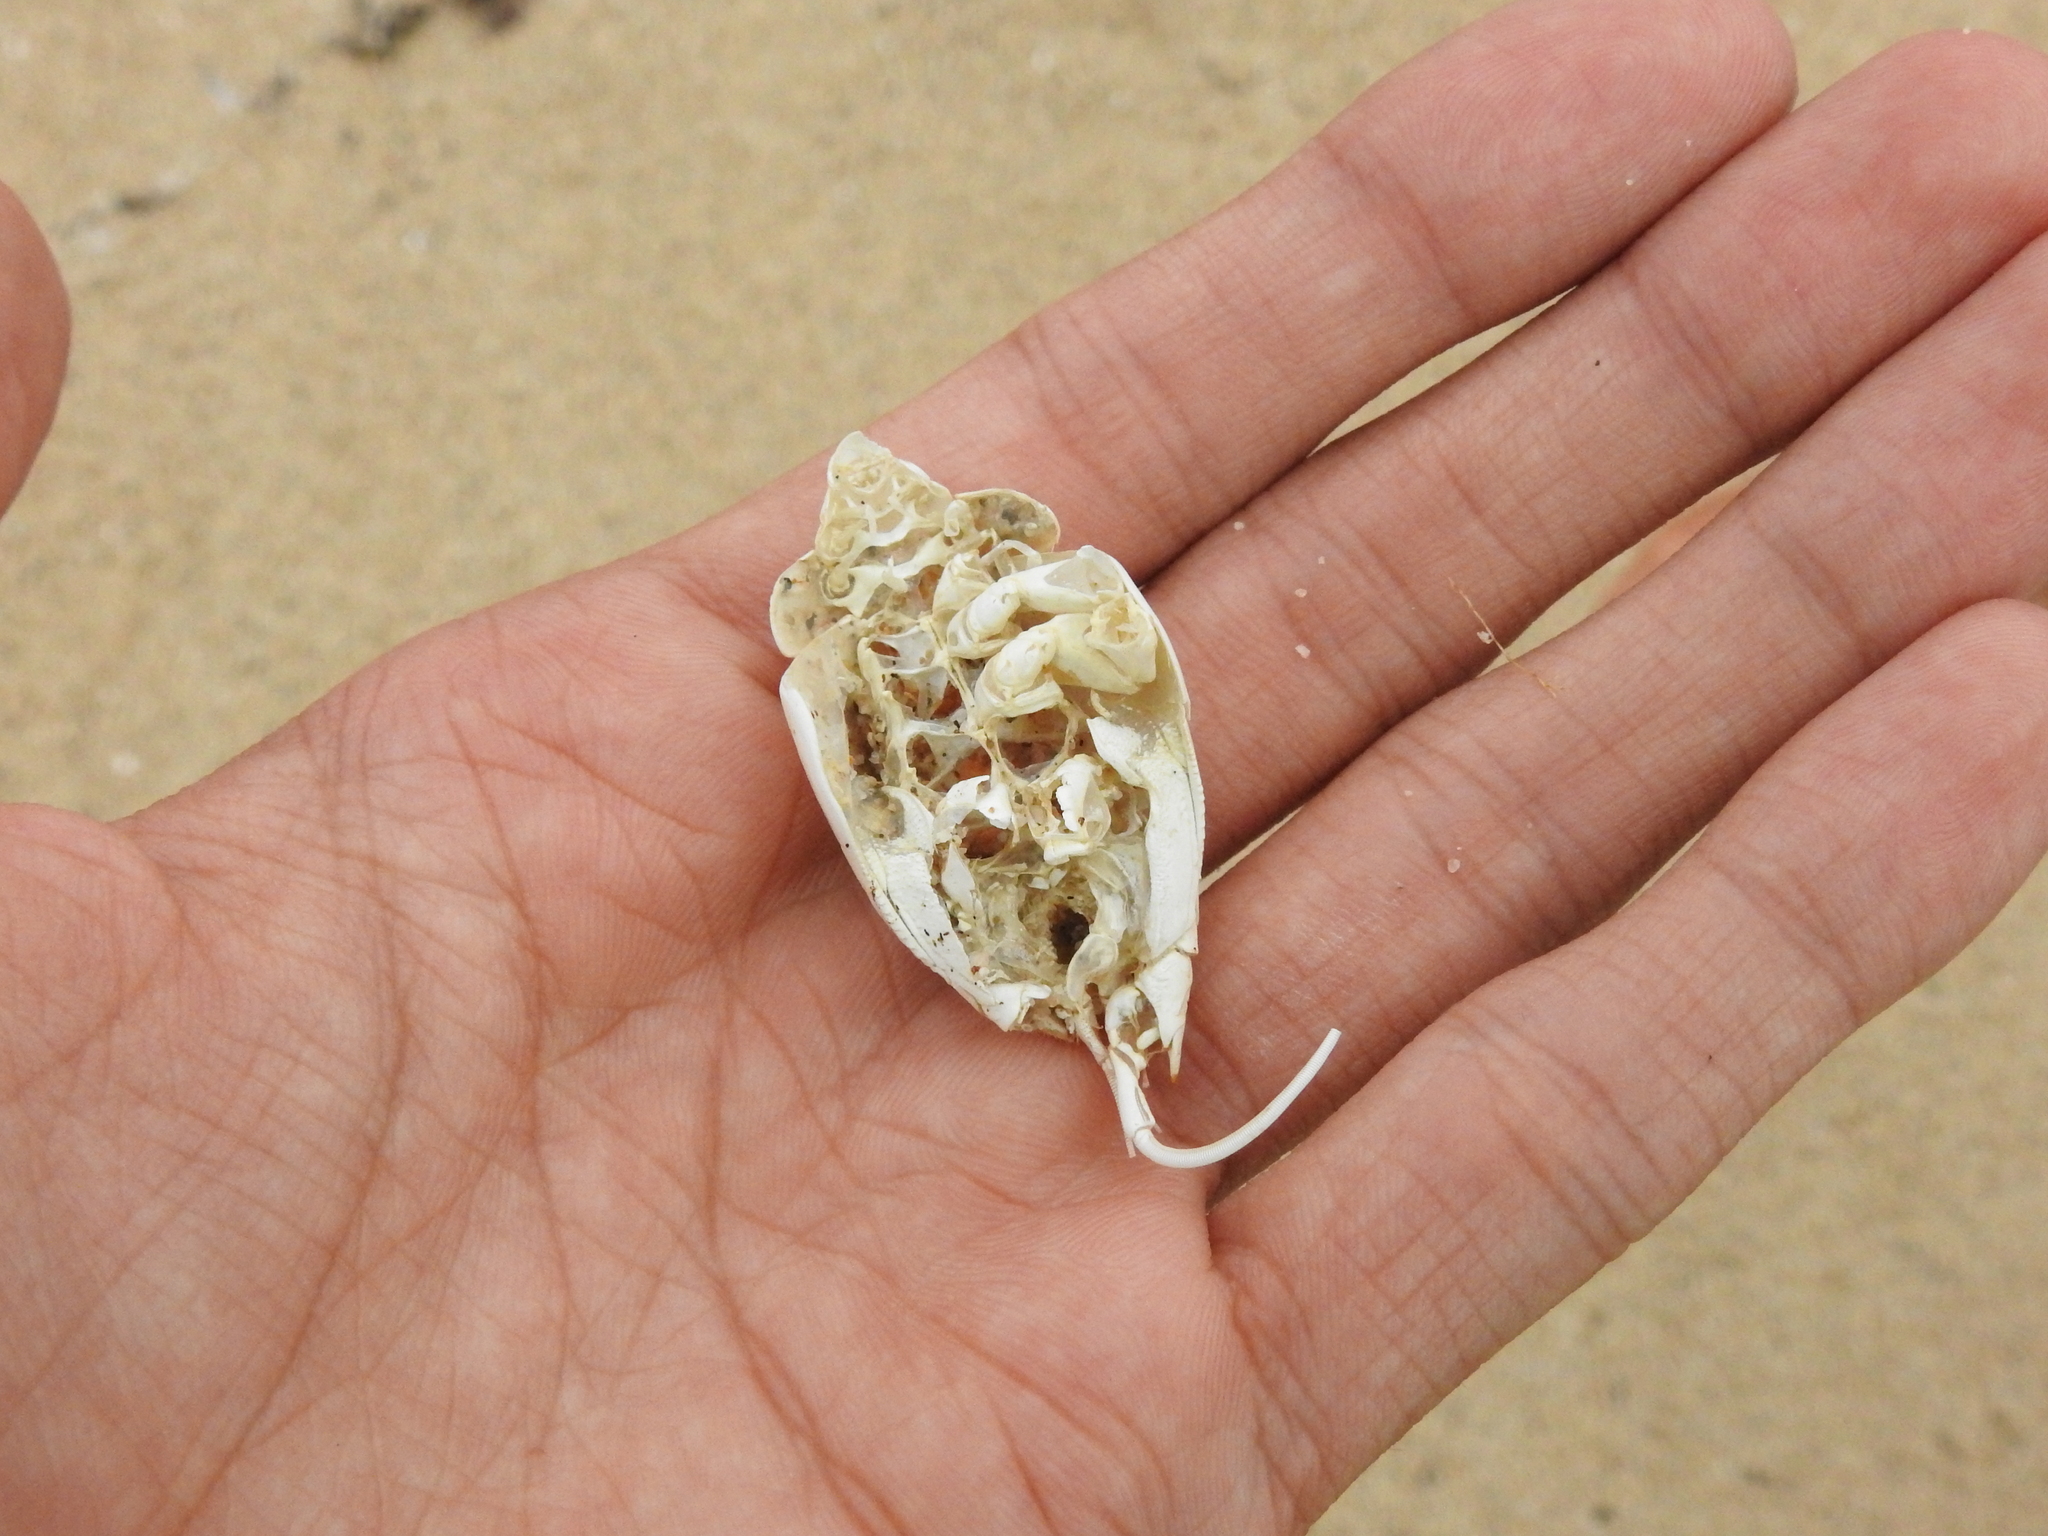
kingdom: Animalia
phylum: Arthropoda
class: Malacostraca
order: Decapoda
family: Hippidae
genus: Emerita
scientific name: Emerita analoga
